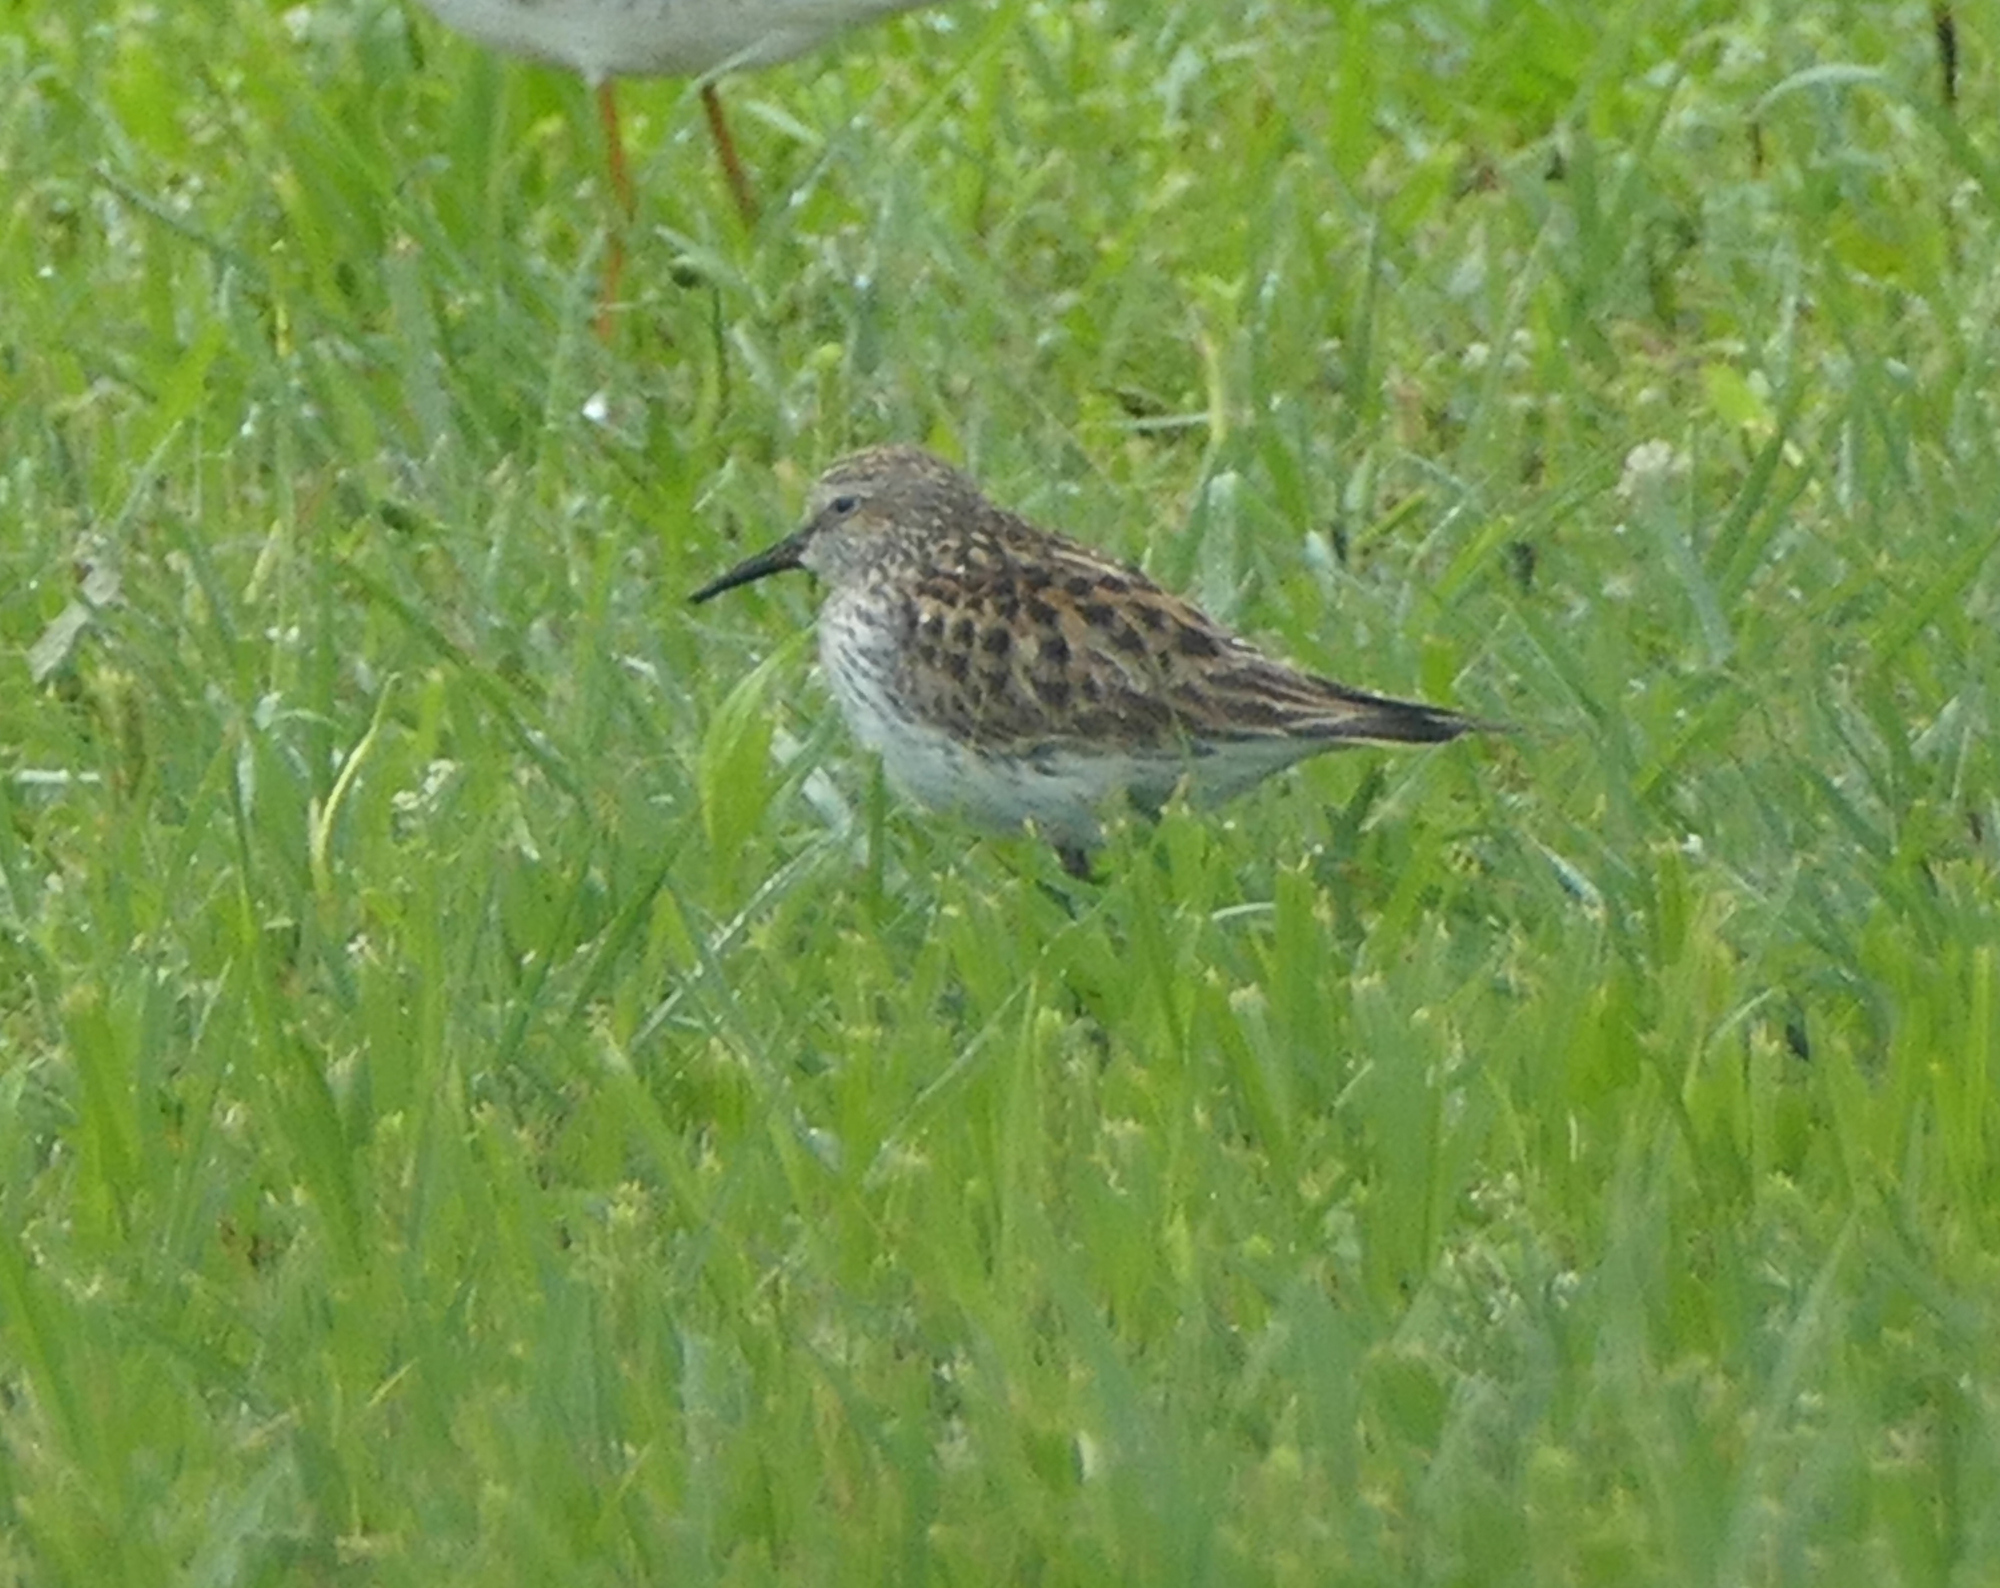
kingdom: Animalia
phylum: Chordata
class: Aves
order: Charadriiformes
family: Scolopacidae
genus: Calidris
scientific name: Calidris fuscicollis
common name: White-rumped sandpiper
